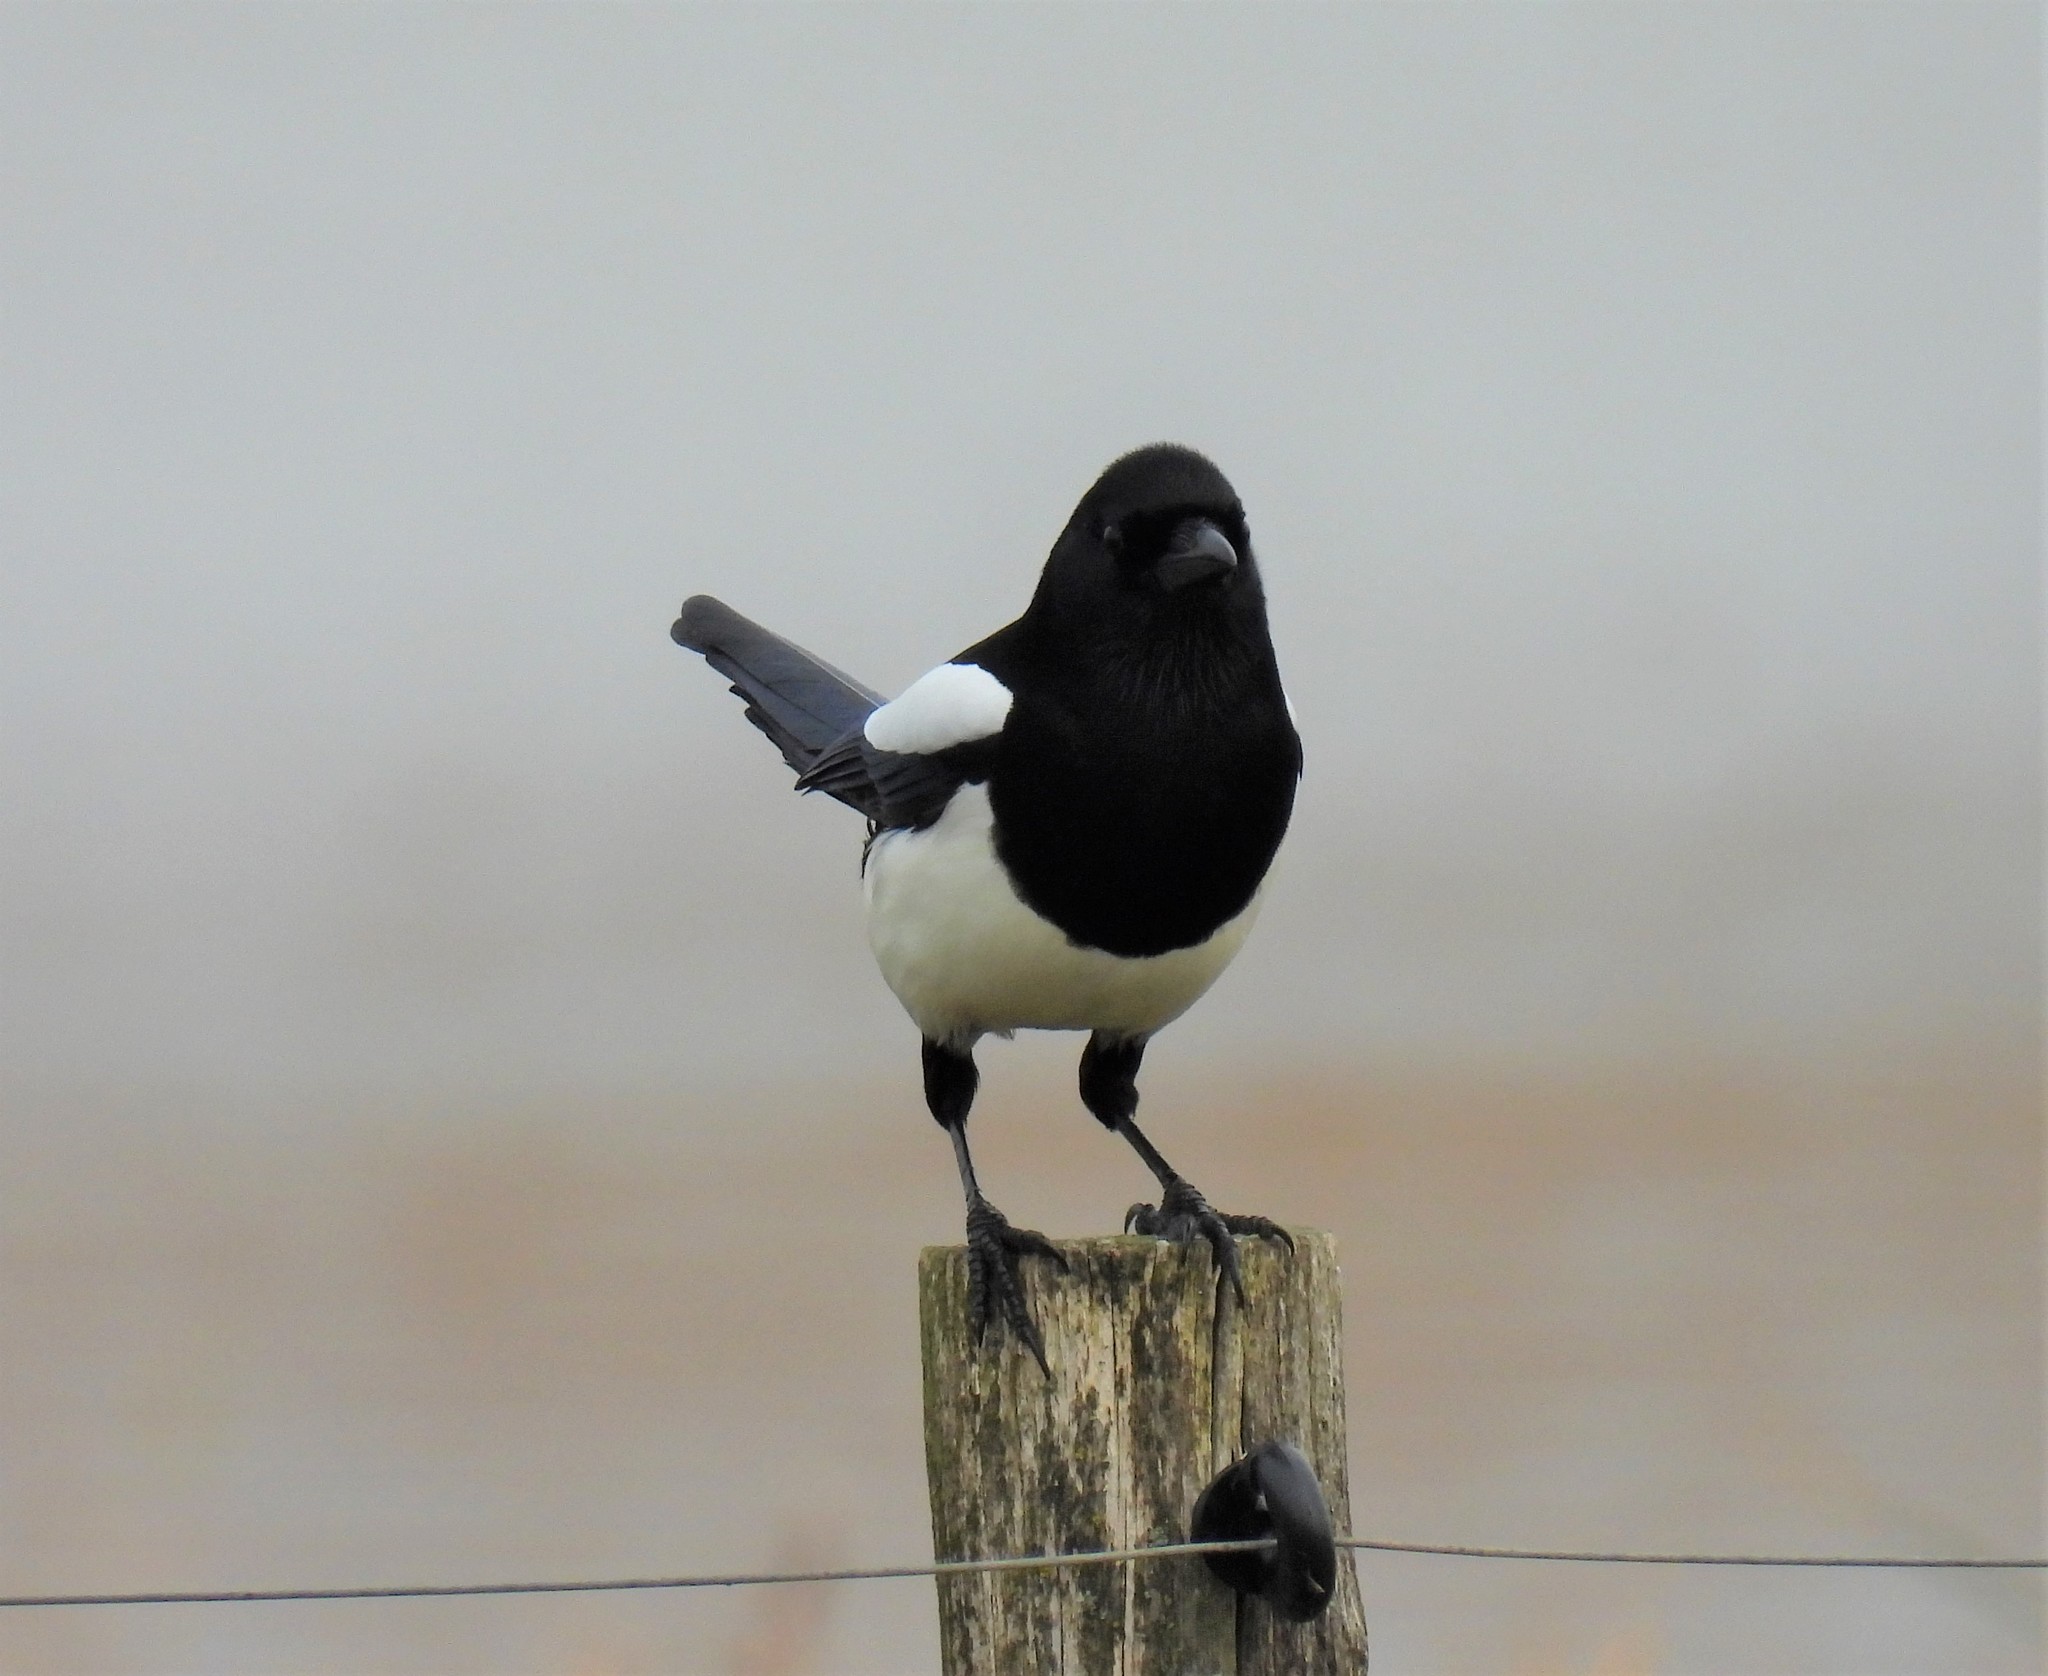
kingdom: Animalia
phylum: Chordata
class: Aves
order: Passeriformes
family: Corvidae
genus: Pica
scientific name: Pica pica
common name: Eurasian magpie
